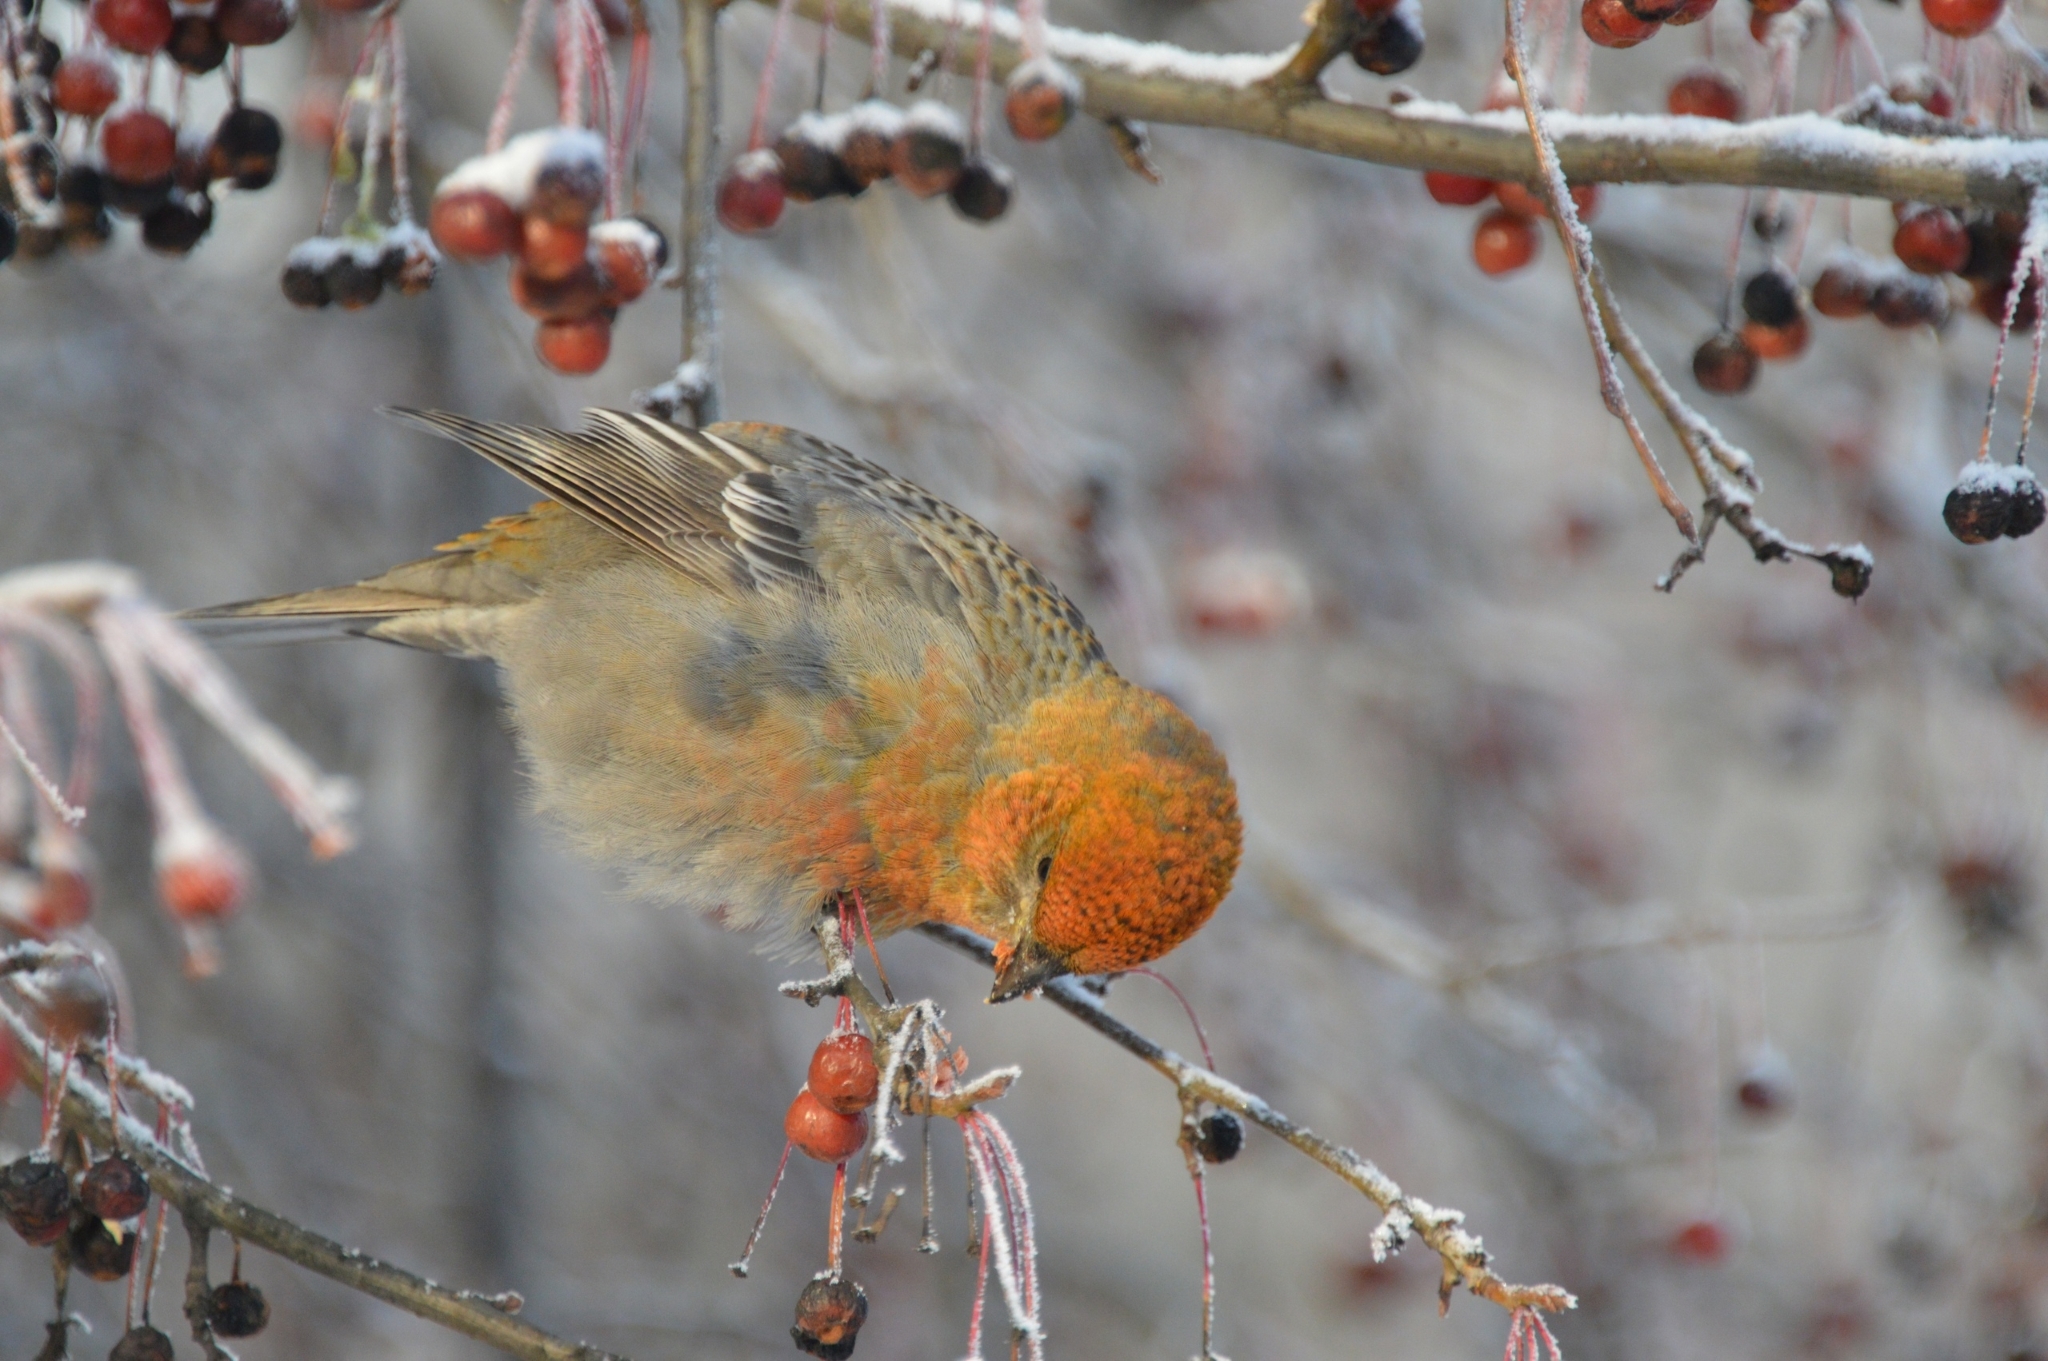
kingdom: Animalia
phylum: Chordata
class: Aves
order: Passeriformes
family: Fringillidae
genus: Pinicola
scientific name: Pinicola enucleator
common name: Pine grosbeak
